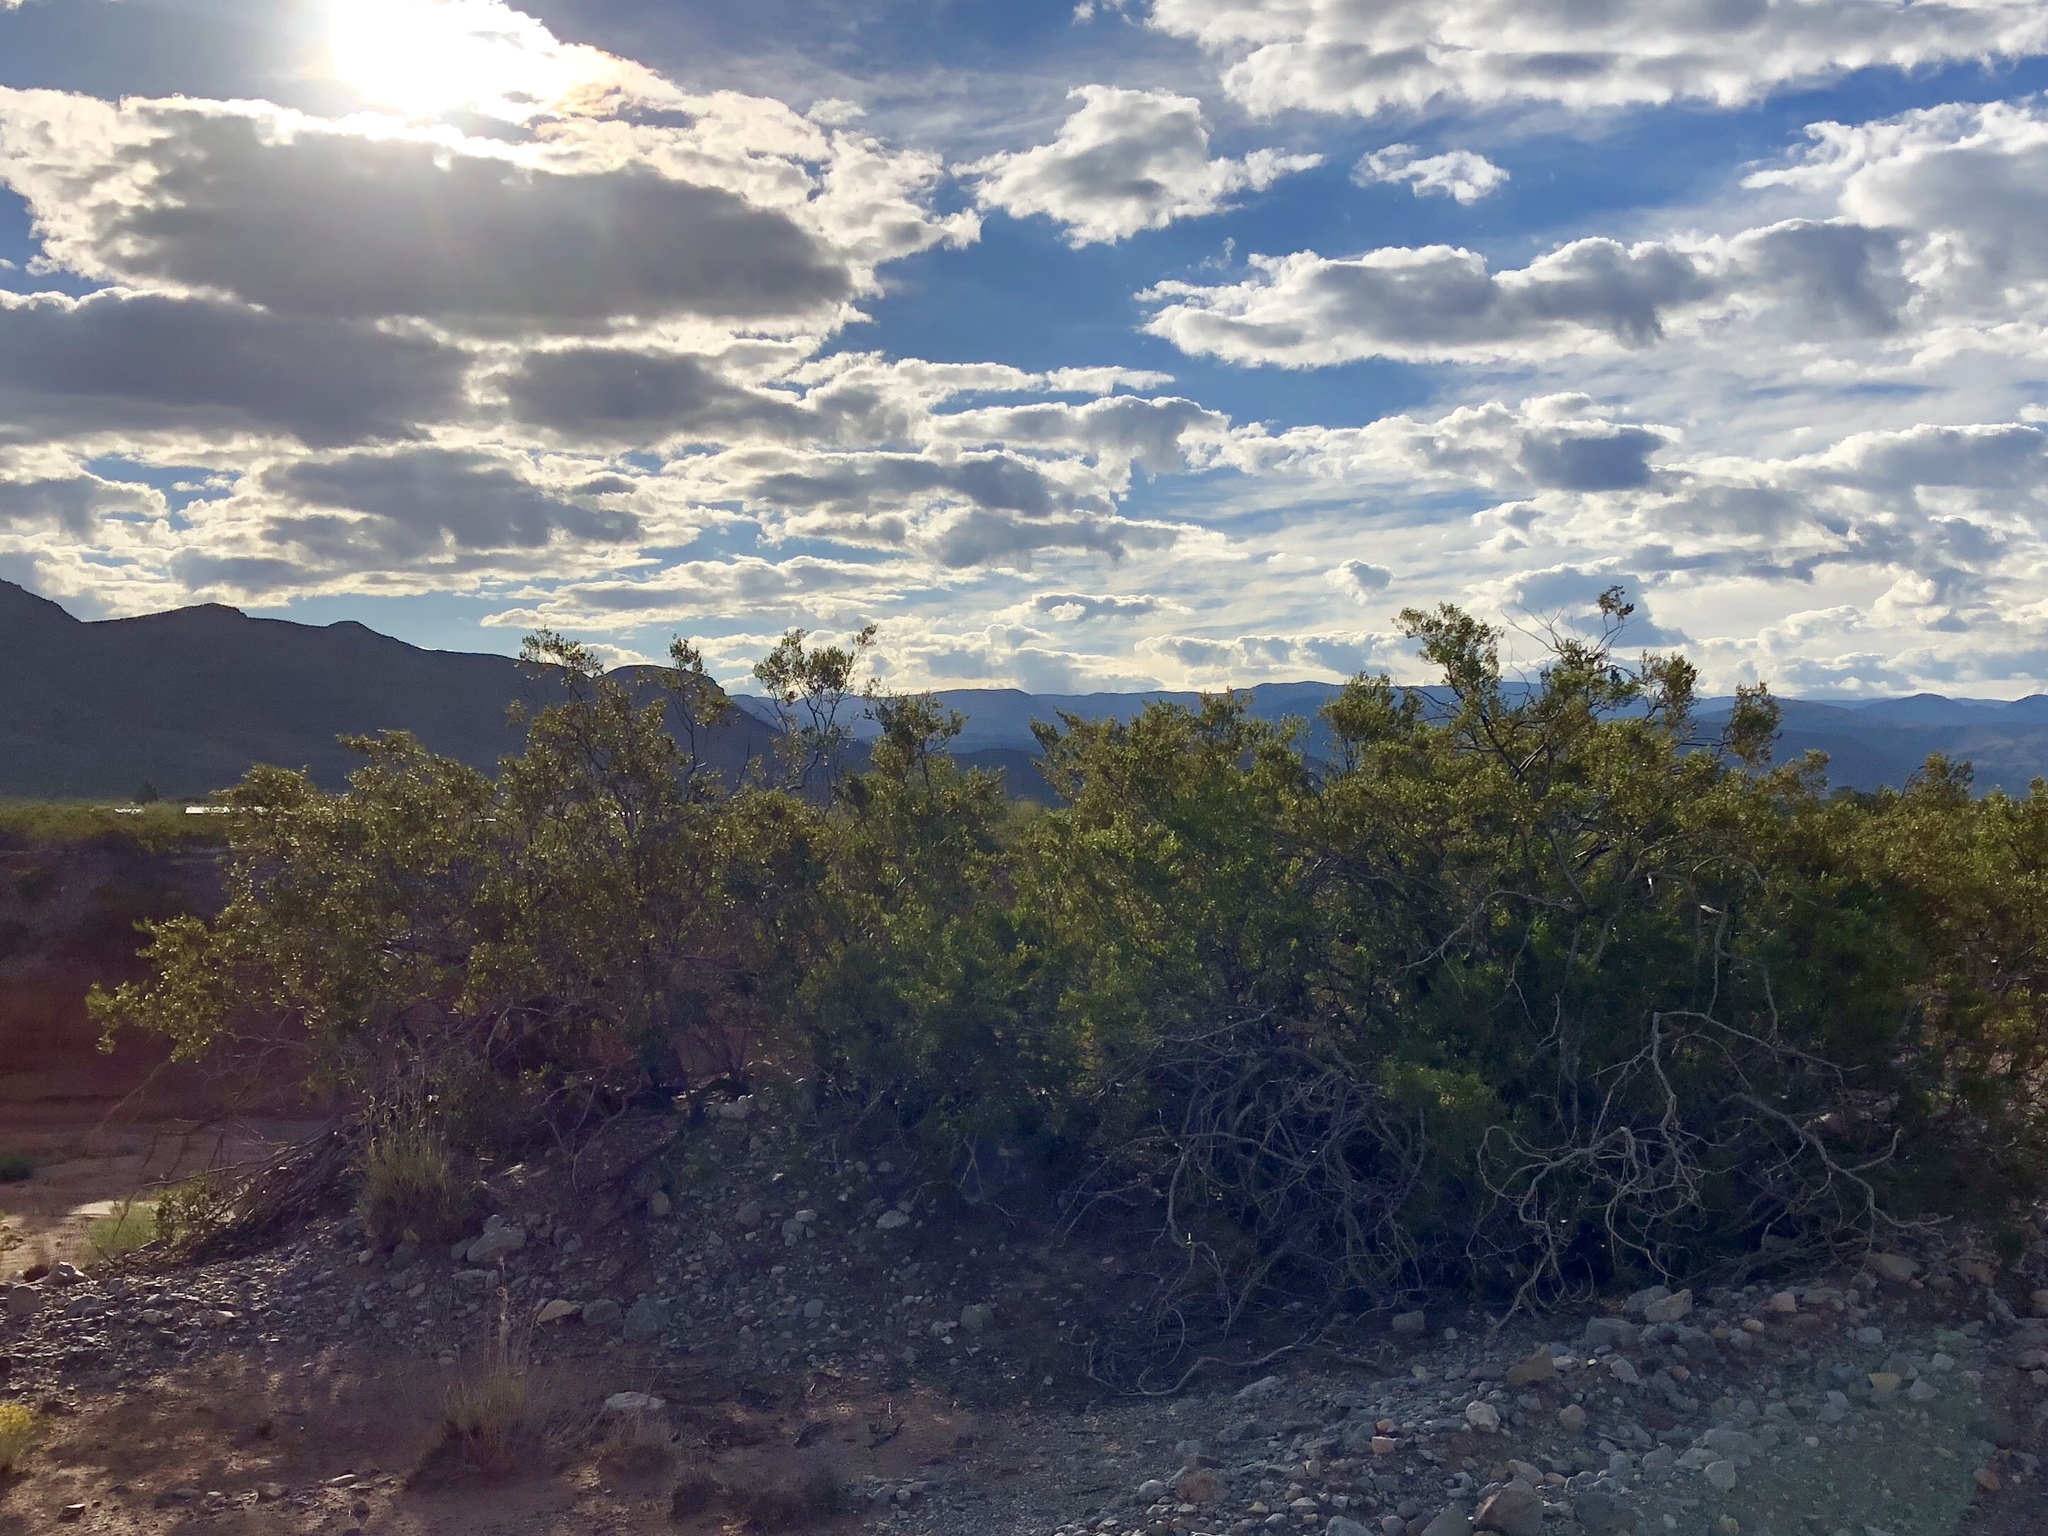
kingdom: Plantae
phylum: Tracheophyta
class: Magnoliopsida
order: Zygophyllales
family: Zygophyllaceae
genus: Larrea
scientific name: Larrea tridentata
